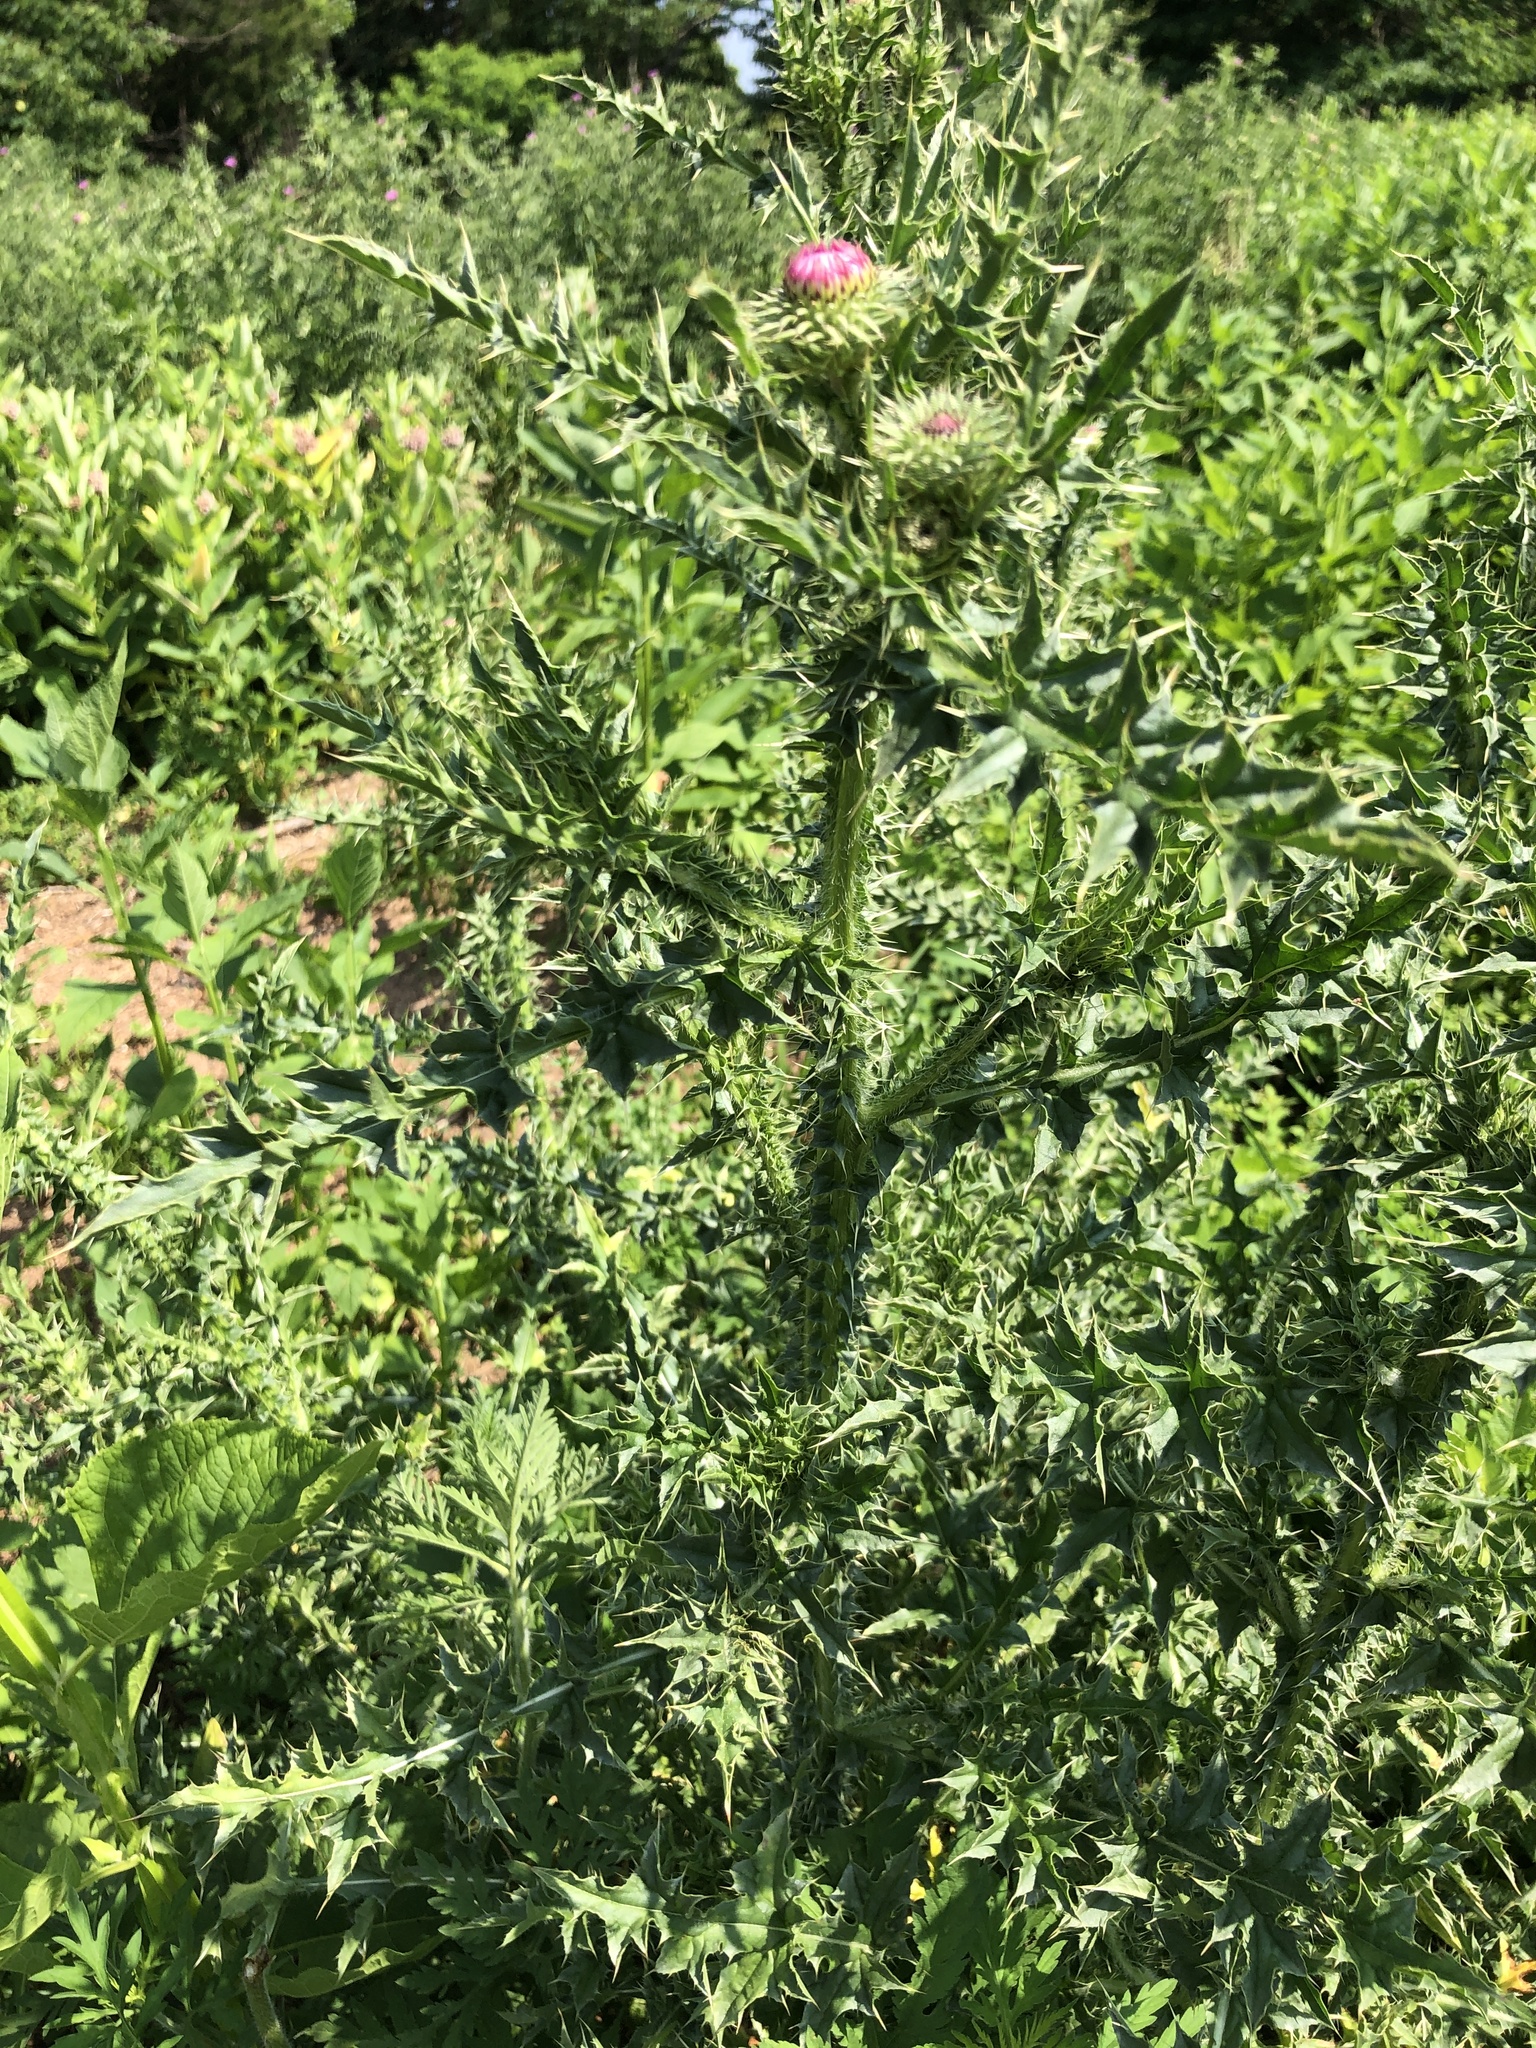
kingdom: Plantae
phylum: Tracheophyta
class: Magnoliopsida
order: Asterales
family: Asteraceae
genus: Carduus
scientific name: Carduus acanthoides
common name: Plumeless thistle
